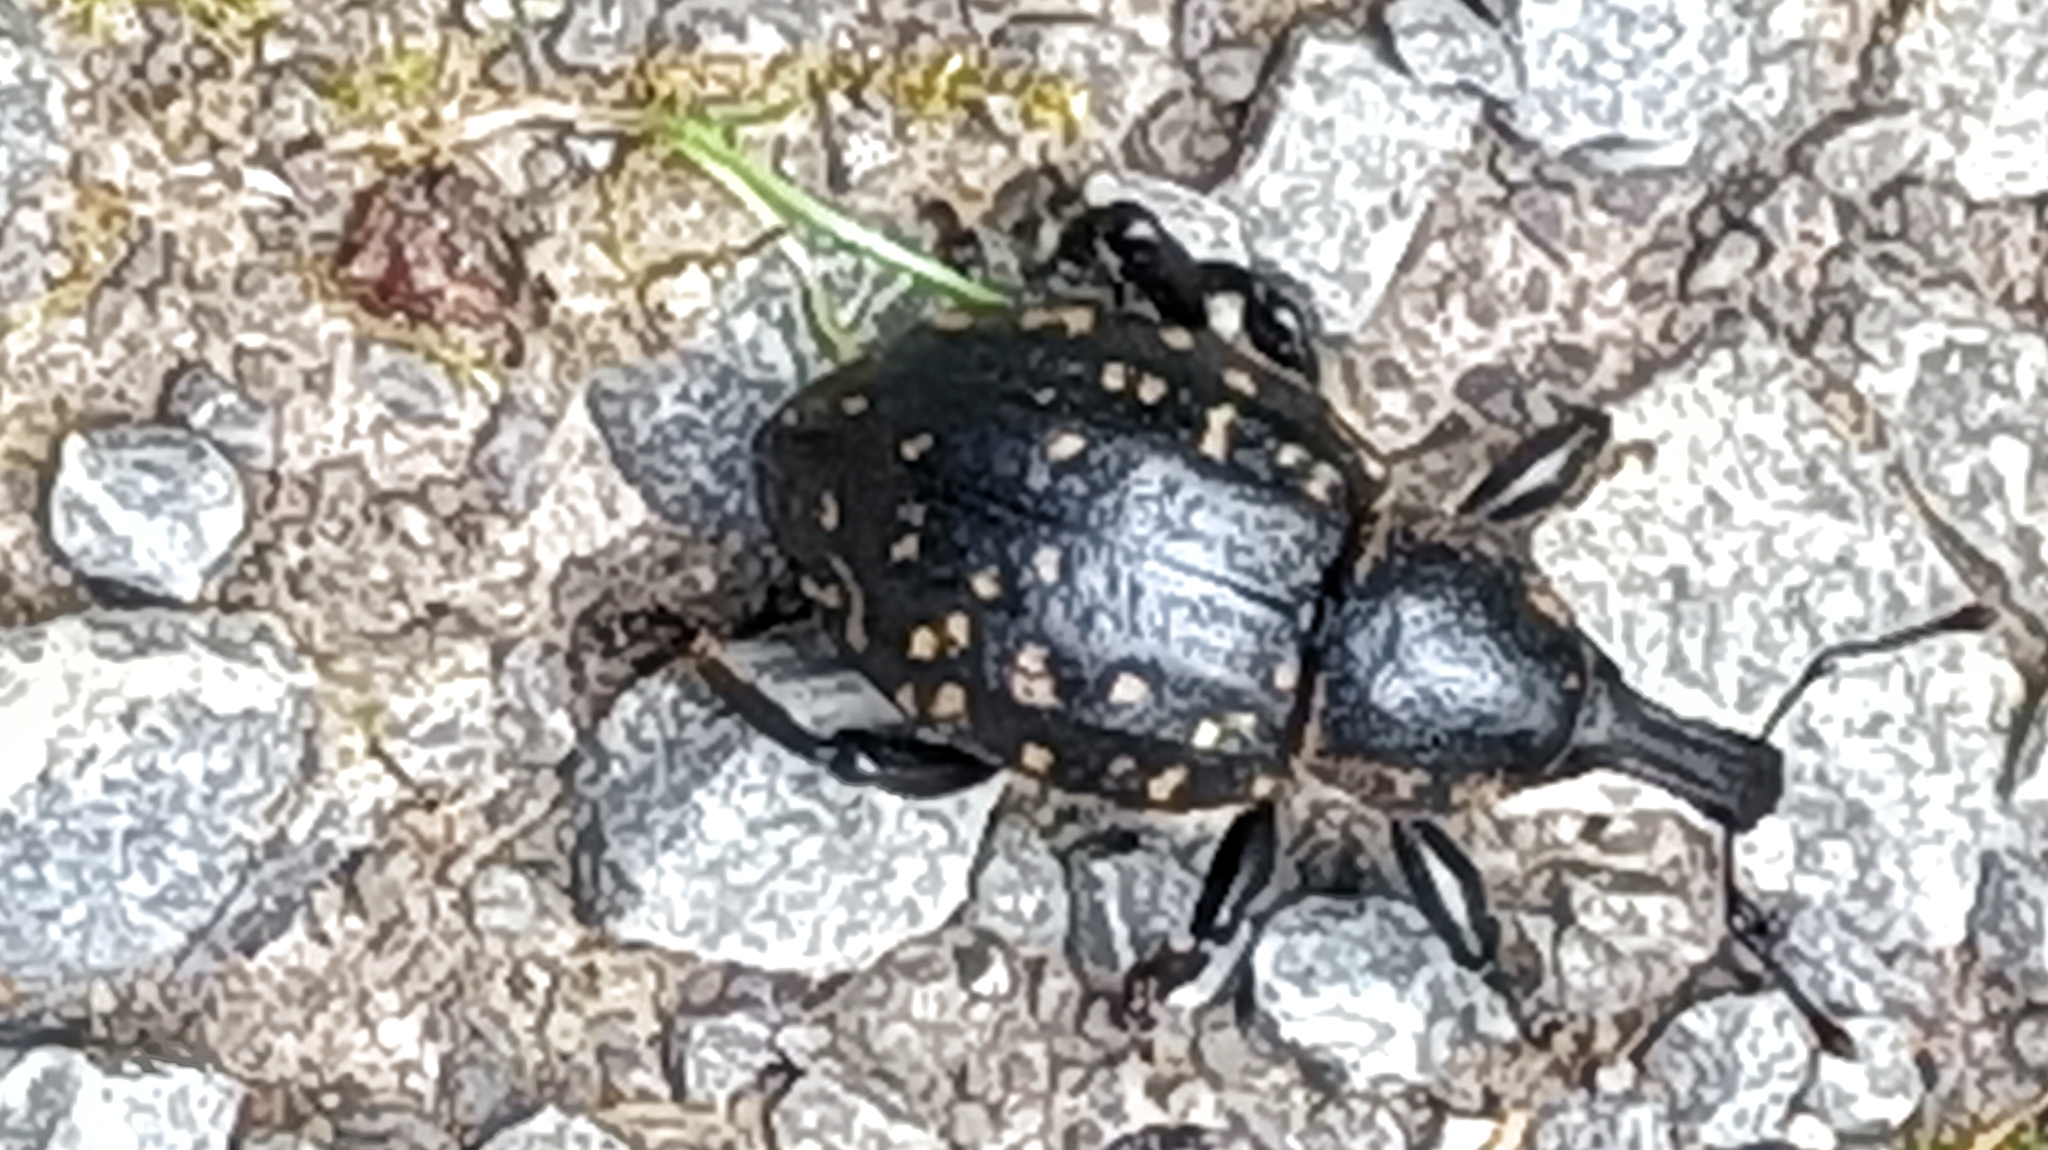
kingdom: Animalia
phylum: Arthropoda
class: Insecta
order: Coleoptera
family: Curculionidae
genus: Liparus
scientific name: Liparus germanus
